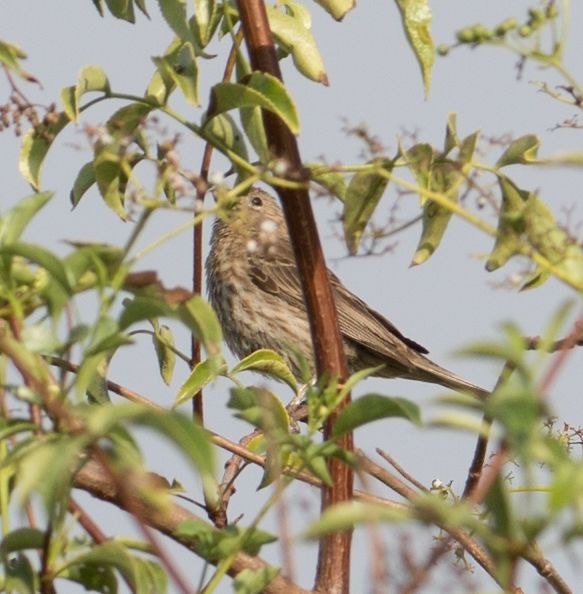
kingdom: Animalia
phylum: Chordata
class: Aves
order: Passeriformes
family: Fringillidae
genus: Haemorhous
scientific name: Haemorhous mexicanus
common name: House finch
